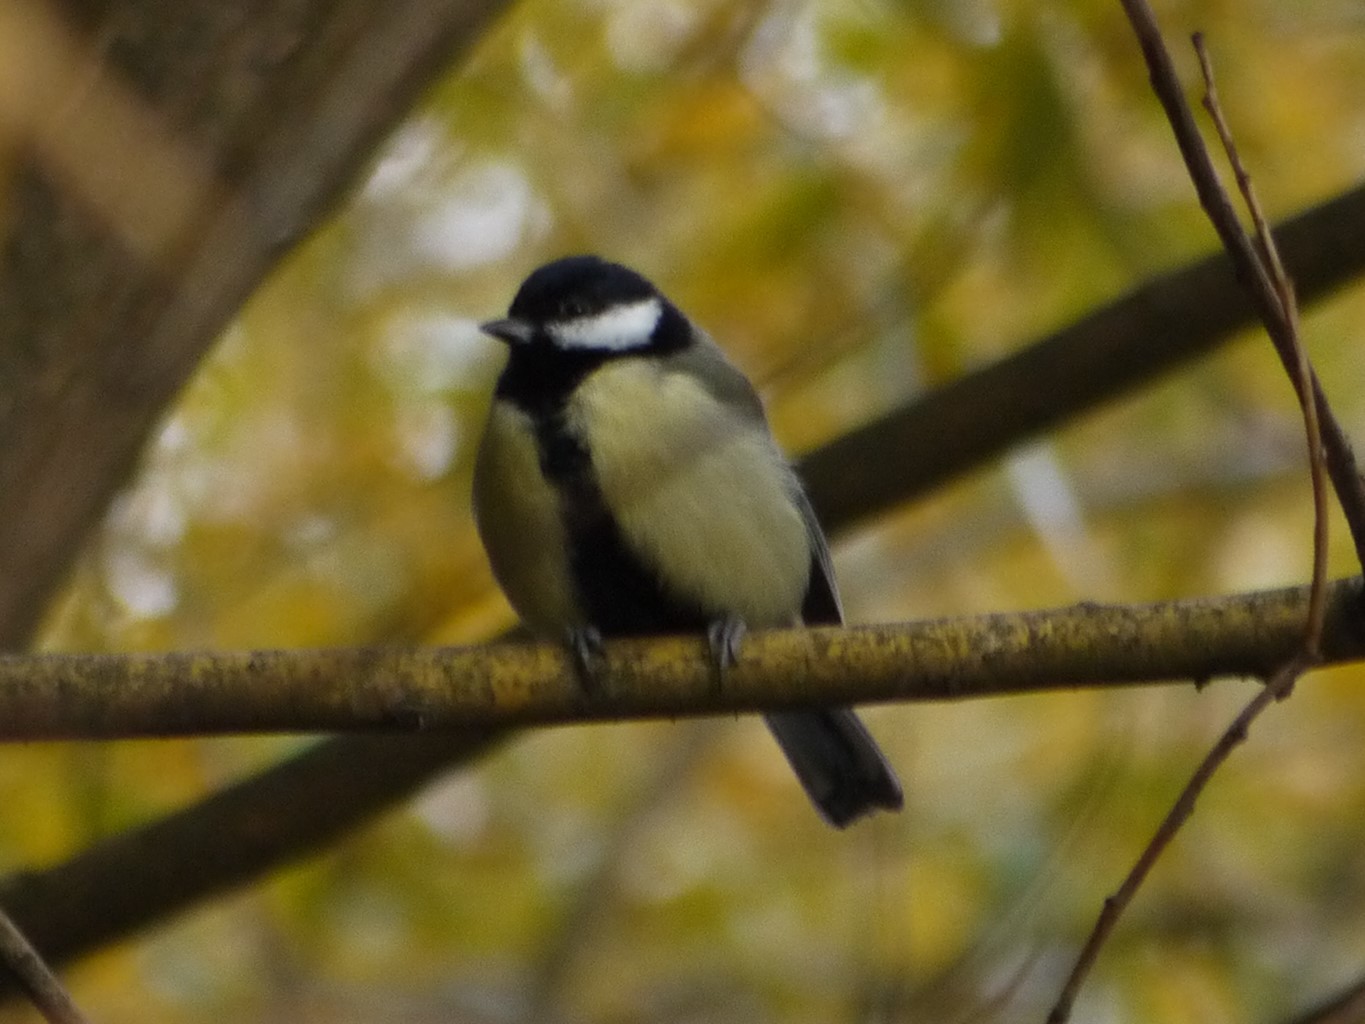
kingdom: Animalia
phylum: Chordata
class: Aves
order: Passeriformes
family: Paridae
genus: Parus
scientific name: Parus major
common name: Great tit
